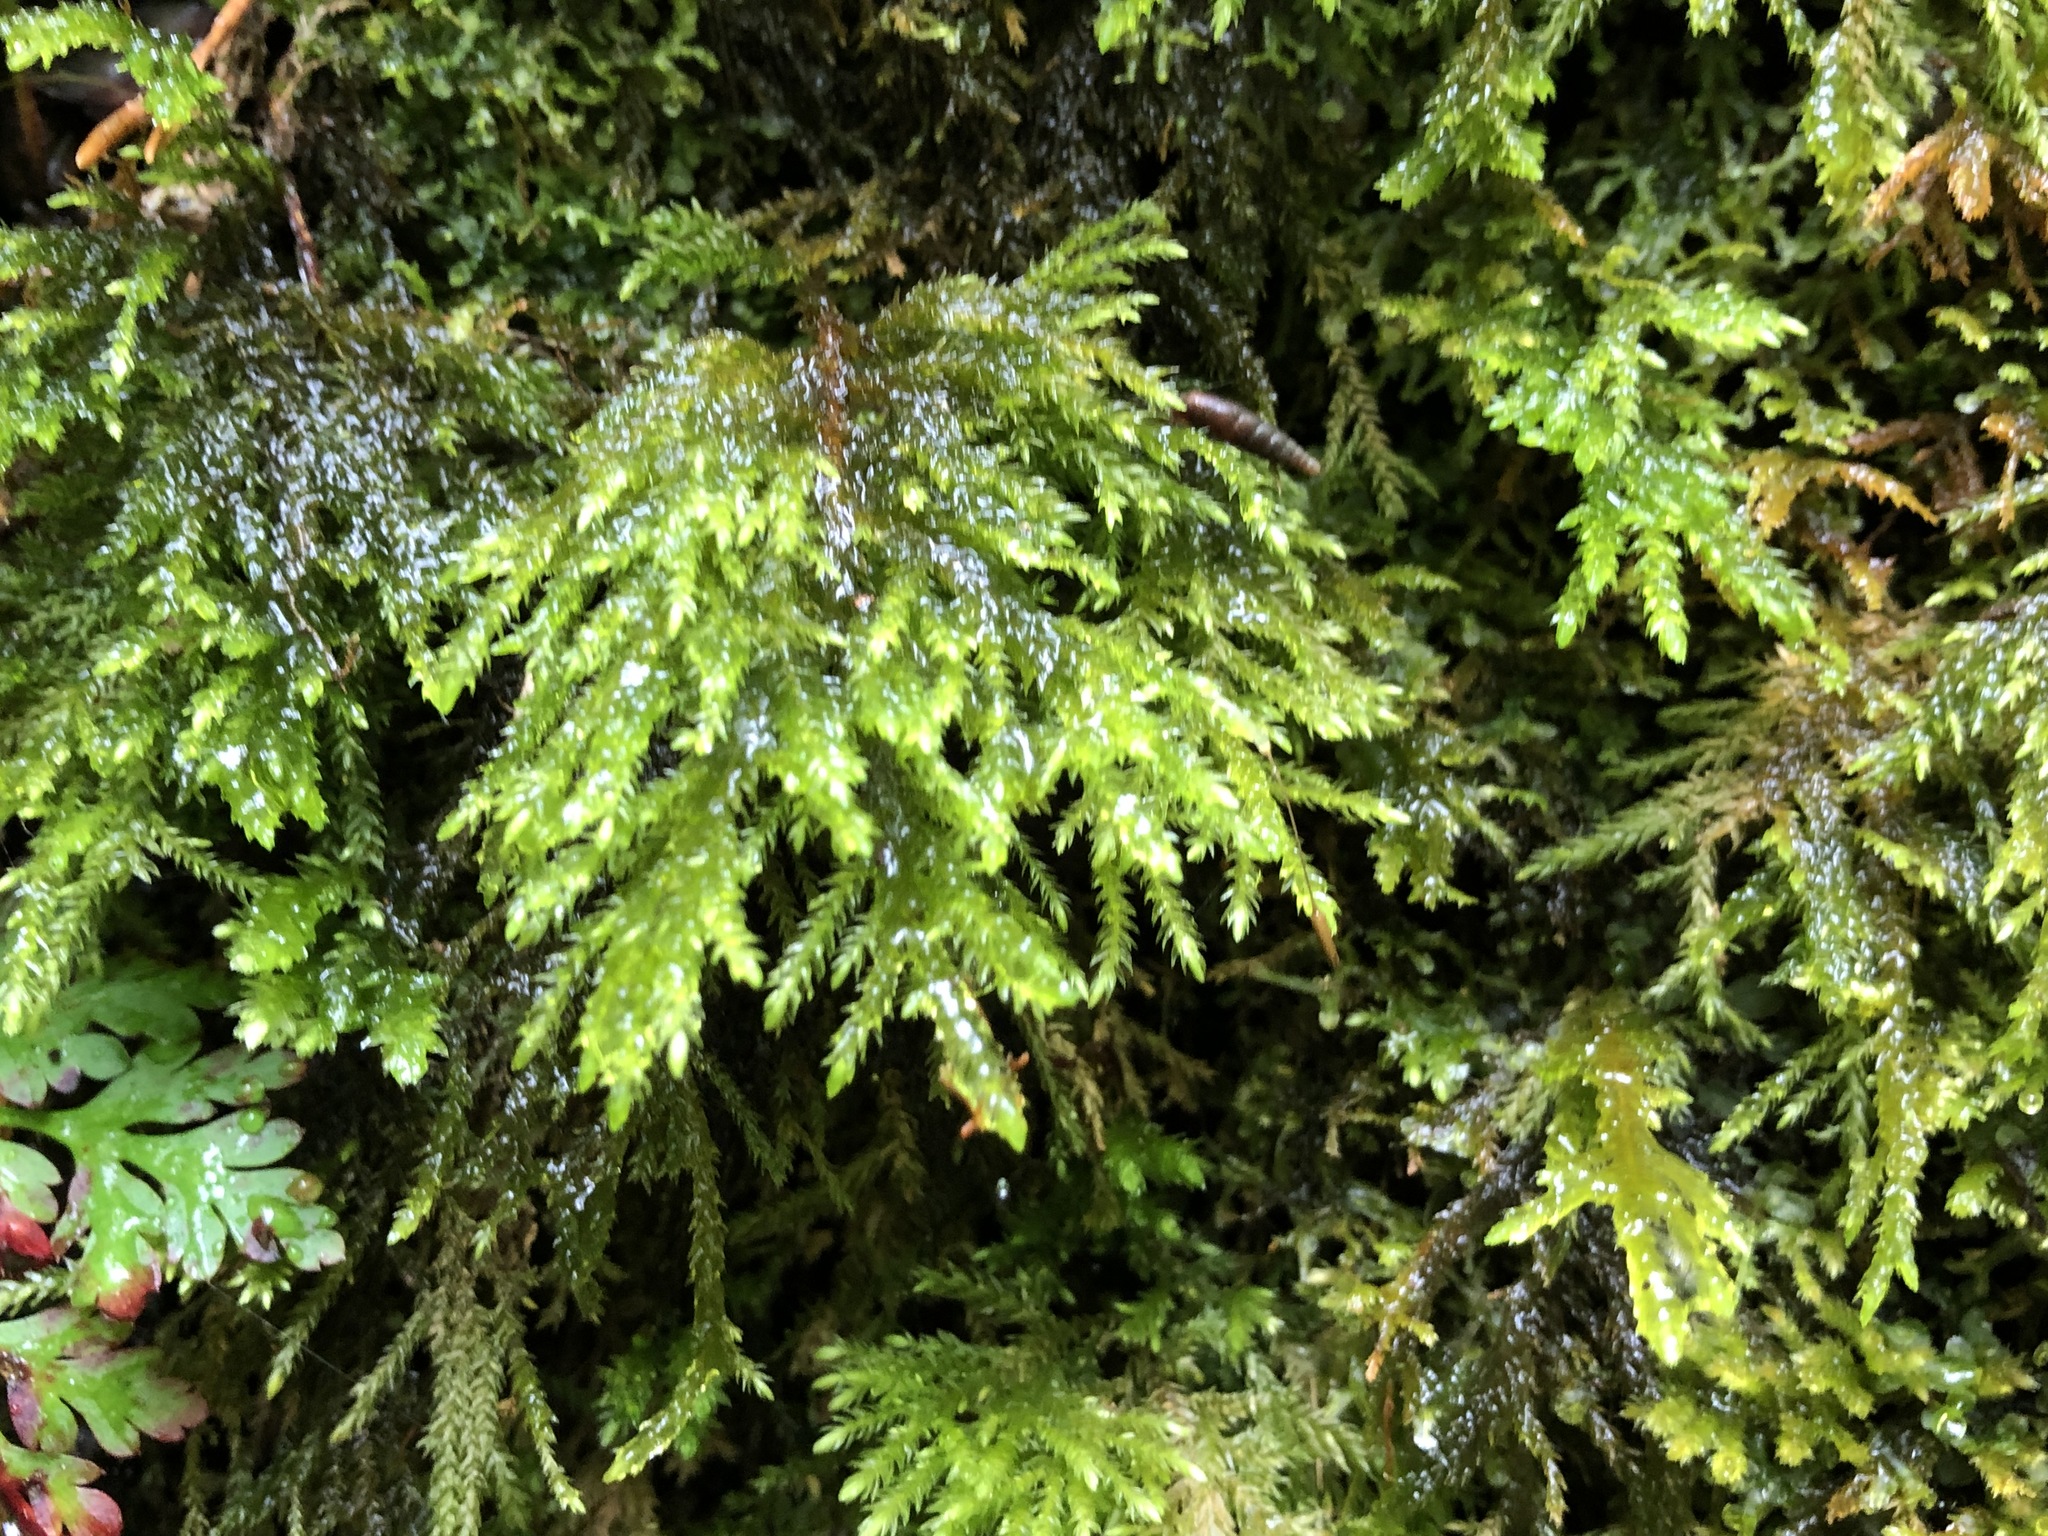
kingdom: Plantae
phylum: Bryophyta
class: Bryopsida
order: Hypnales
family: Neckeraceae
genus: Thamnobryum
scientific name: Thamnobryum alopecurum
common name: Fox-tail feather-moss
